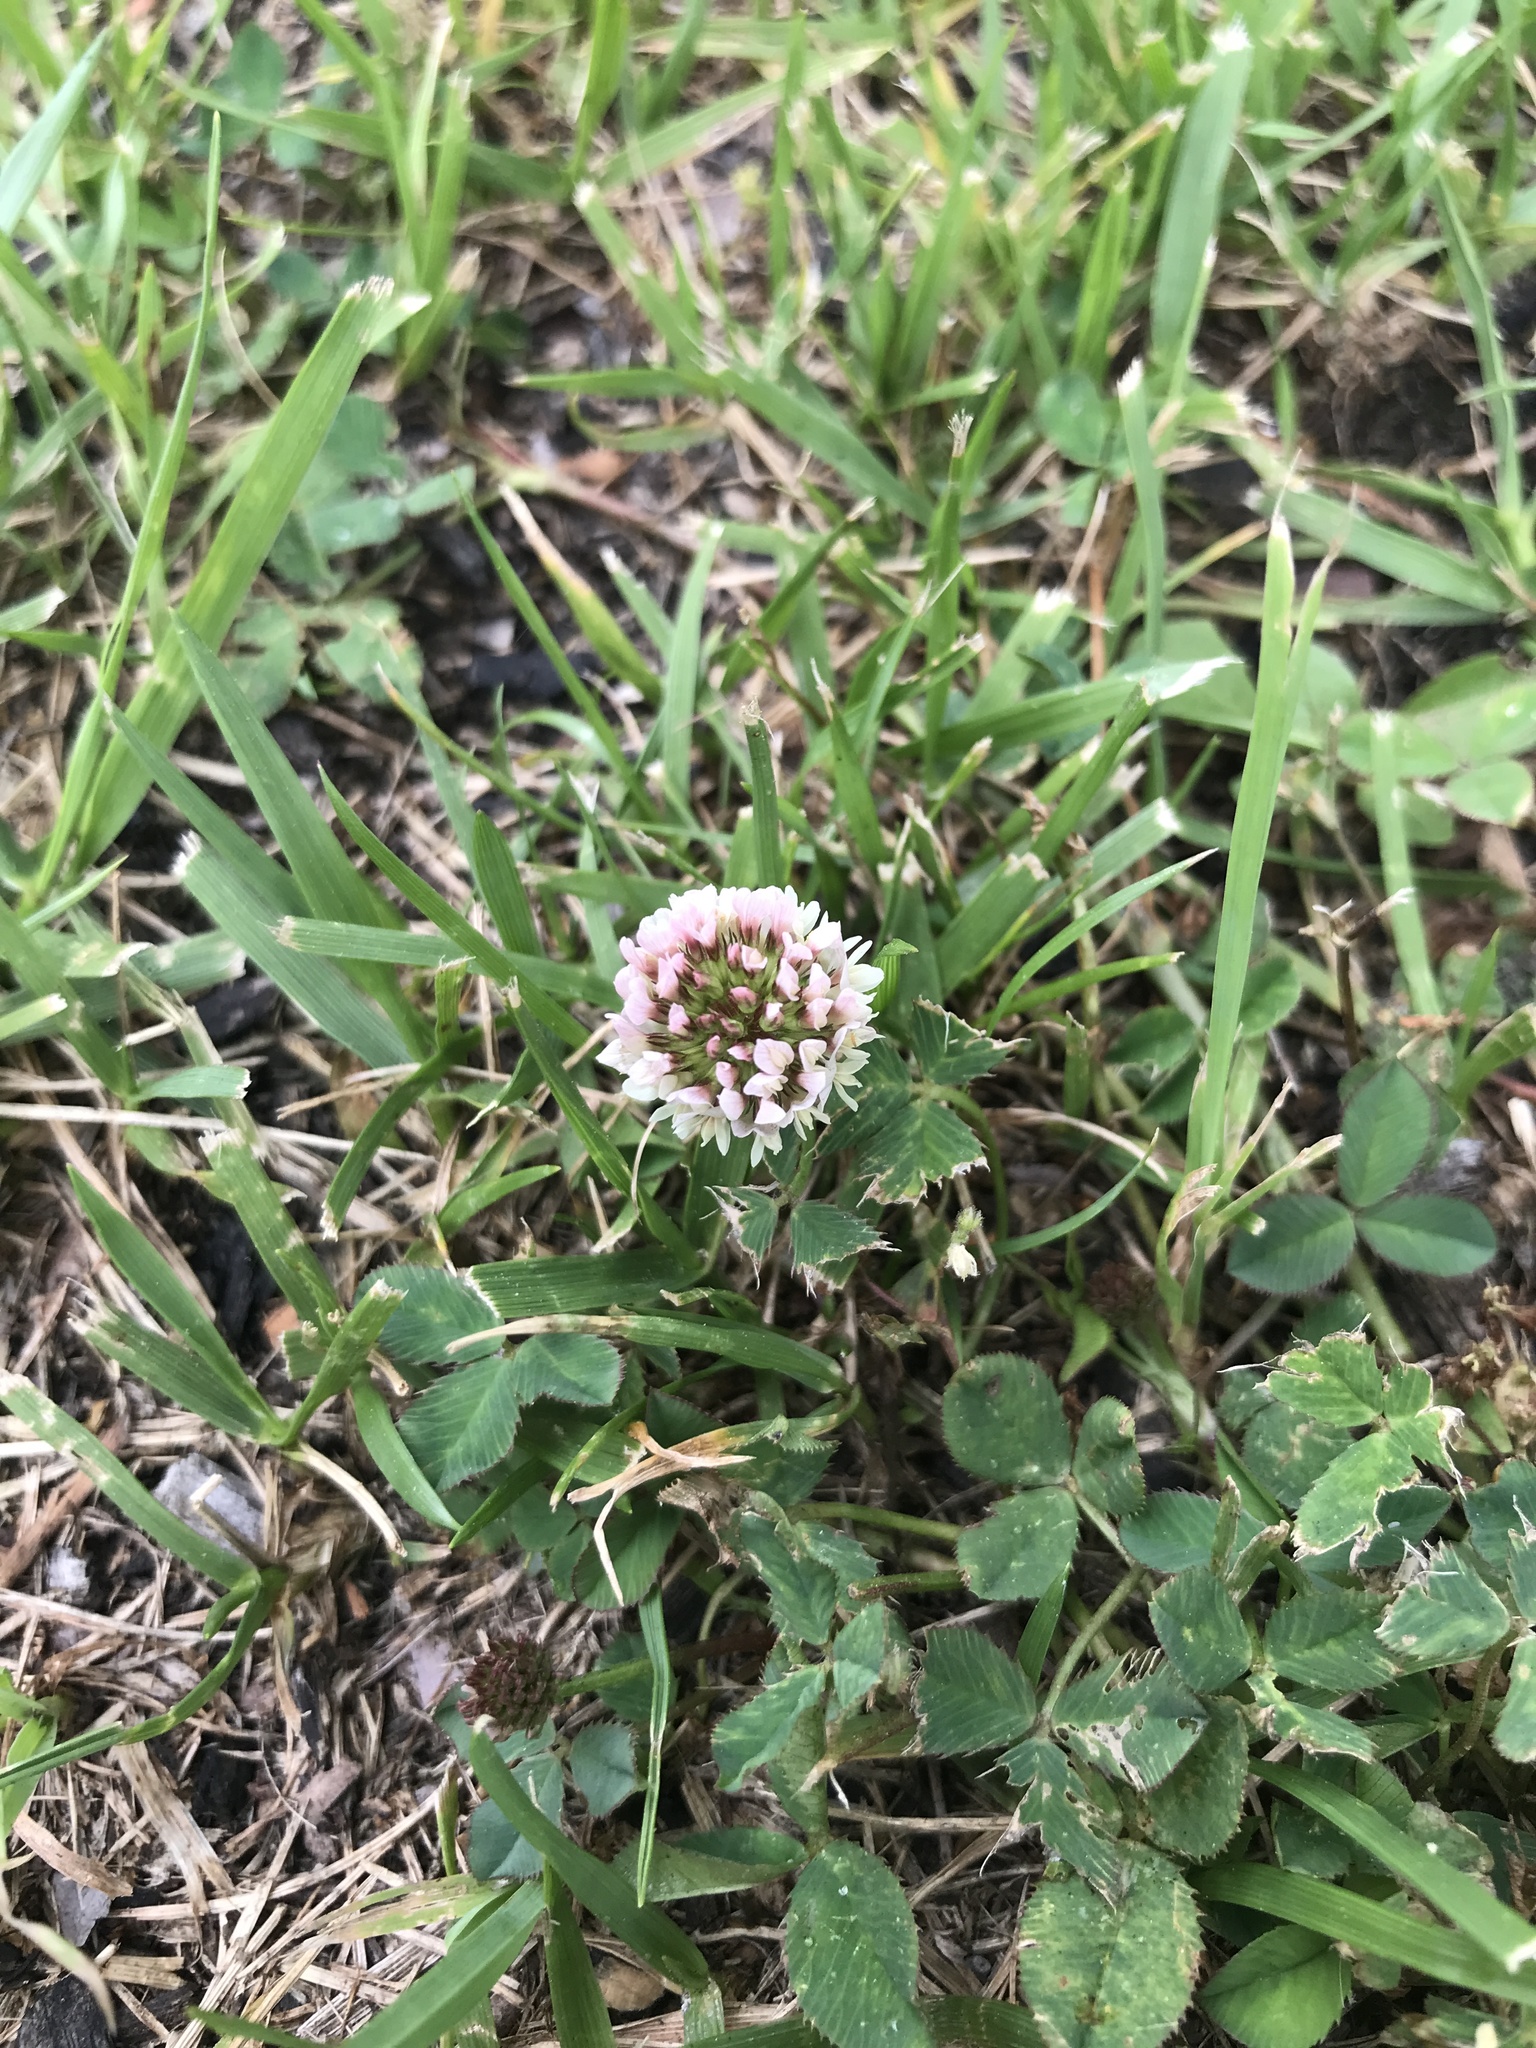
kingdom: Plantae
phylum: Tracheophyta
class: Magnoliopsida
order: Fabales
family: Fabaceae
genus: Trifolium
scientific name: Trifolium repens
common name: White clover
